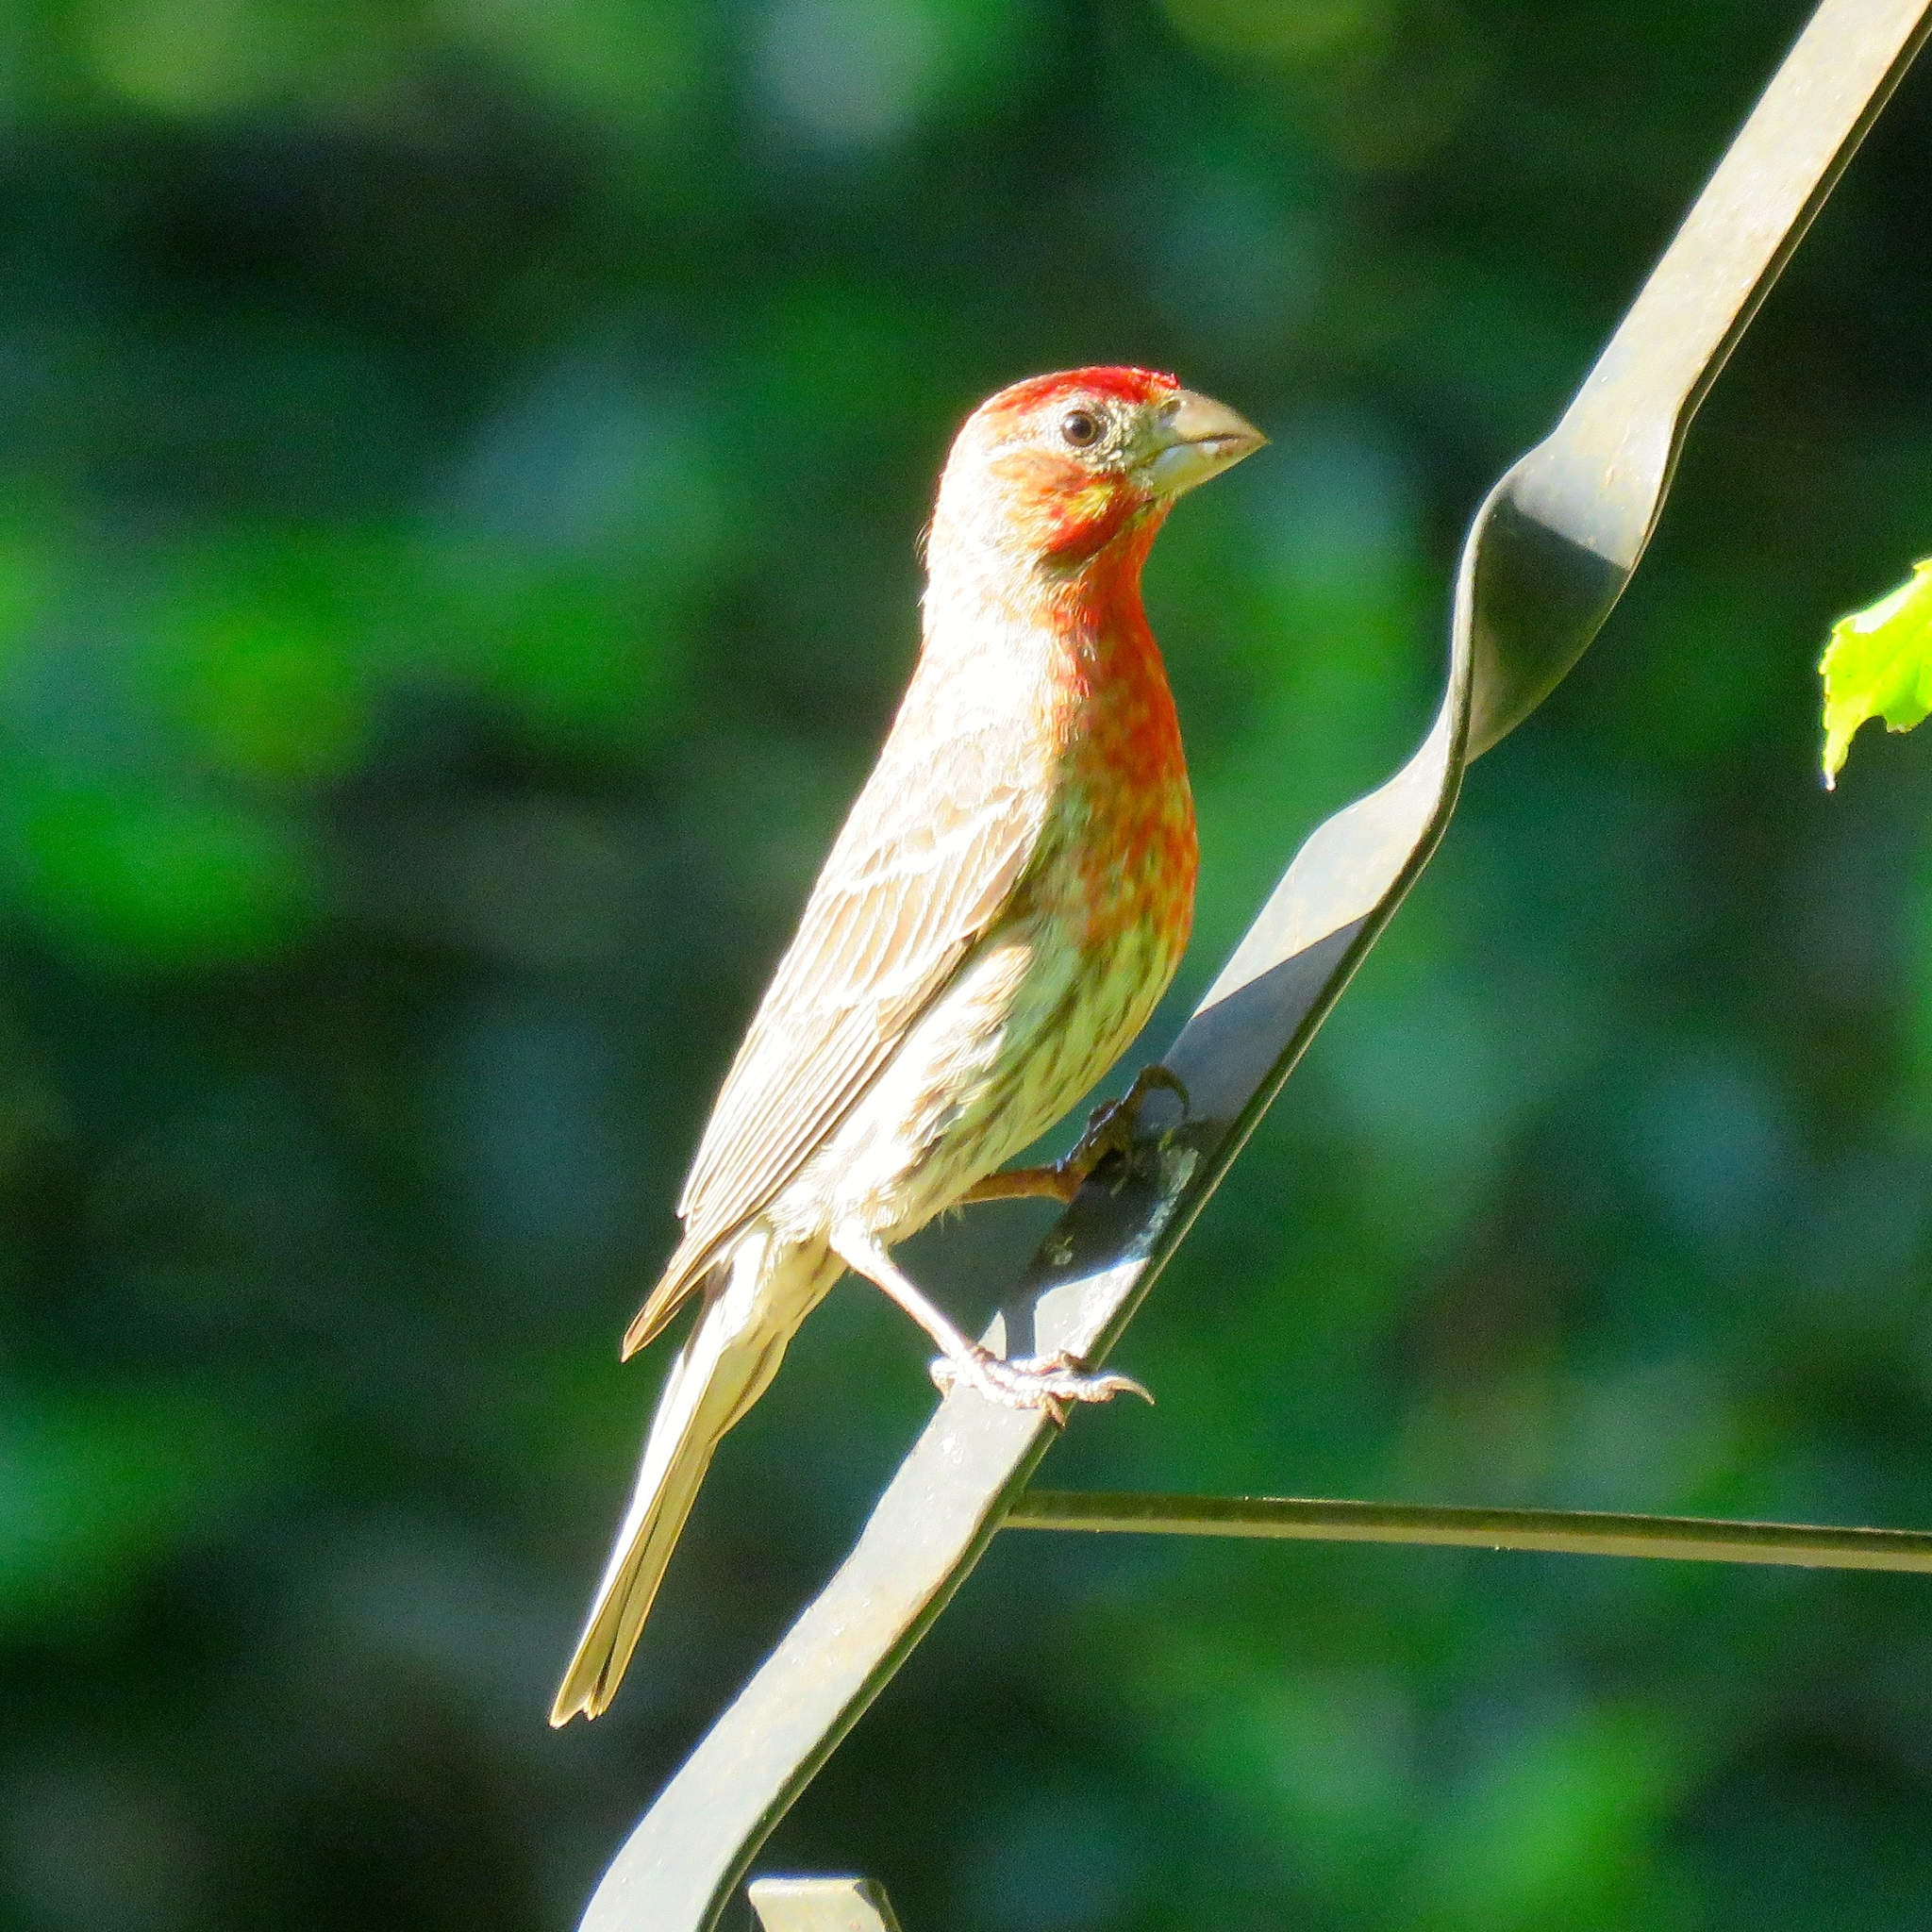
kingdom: Animalia
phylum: Chordata
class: Aves
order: Passeriformes
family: Fringillidae
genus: Haemorhous
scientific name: Haemorhous mexicanus
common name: House finch
